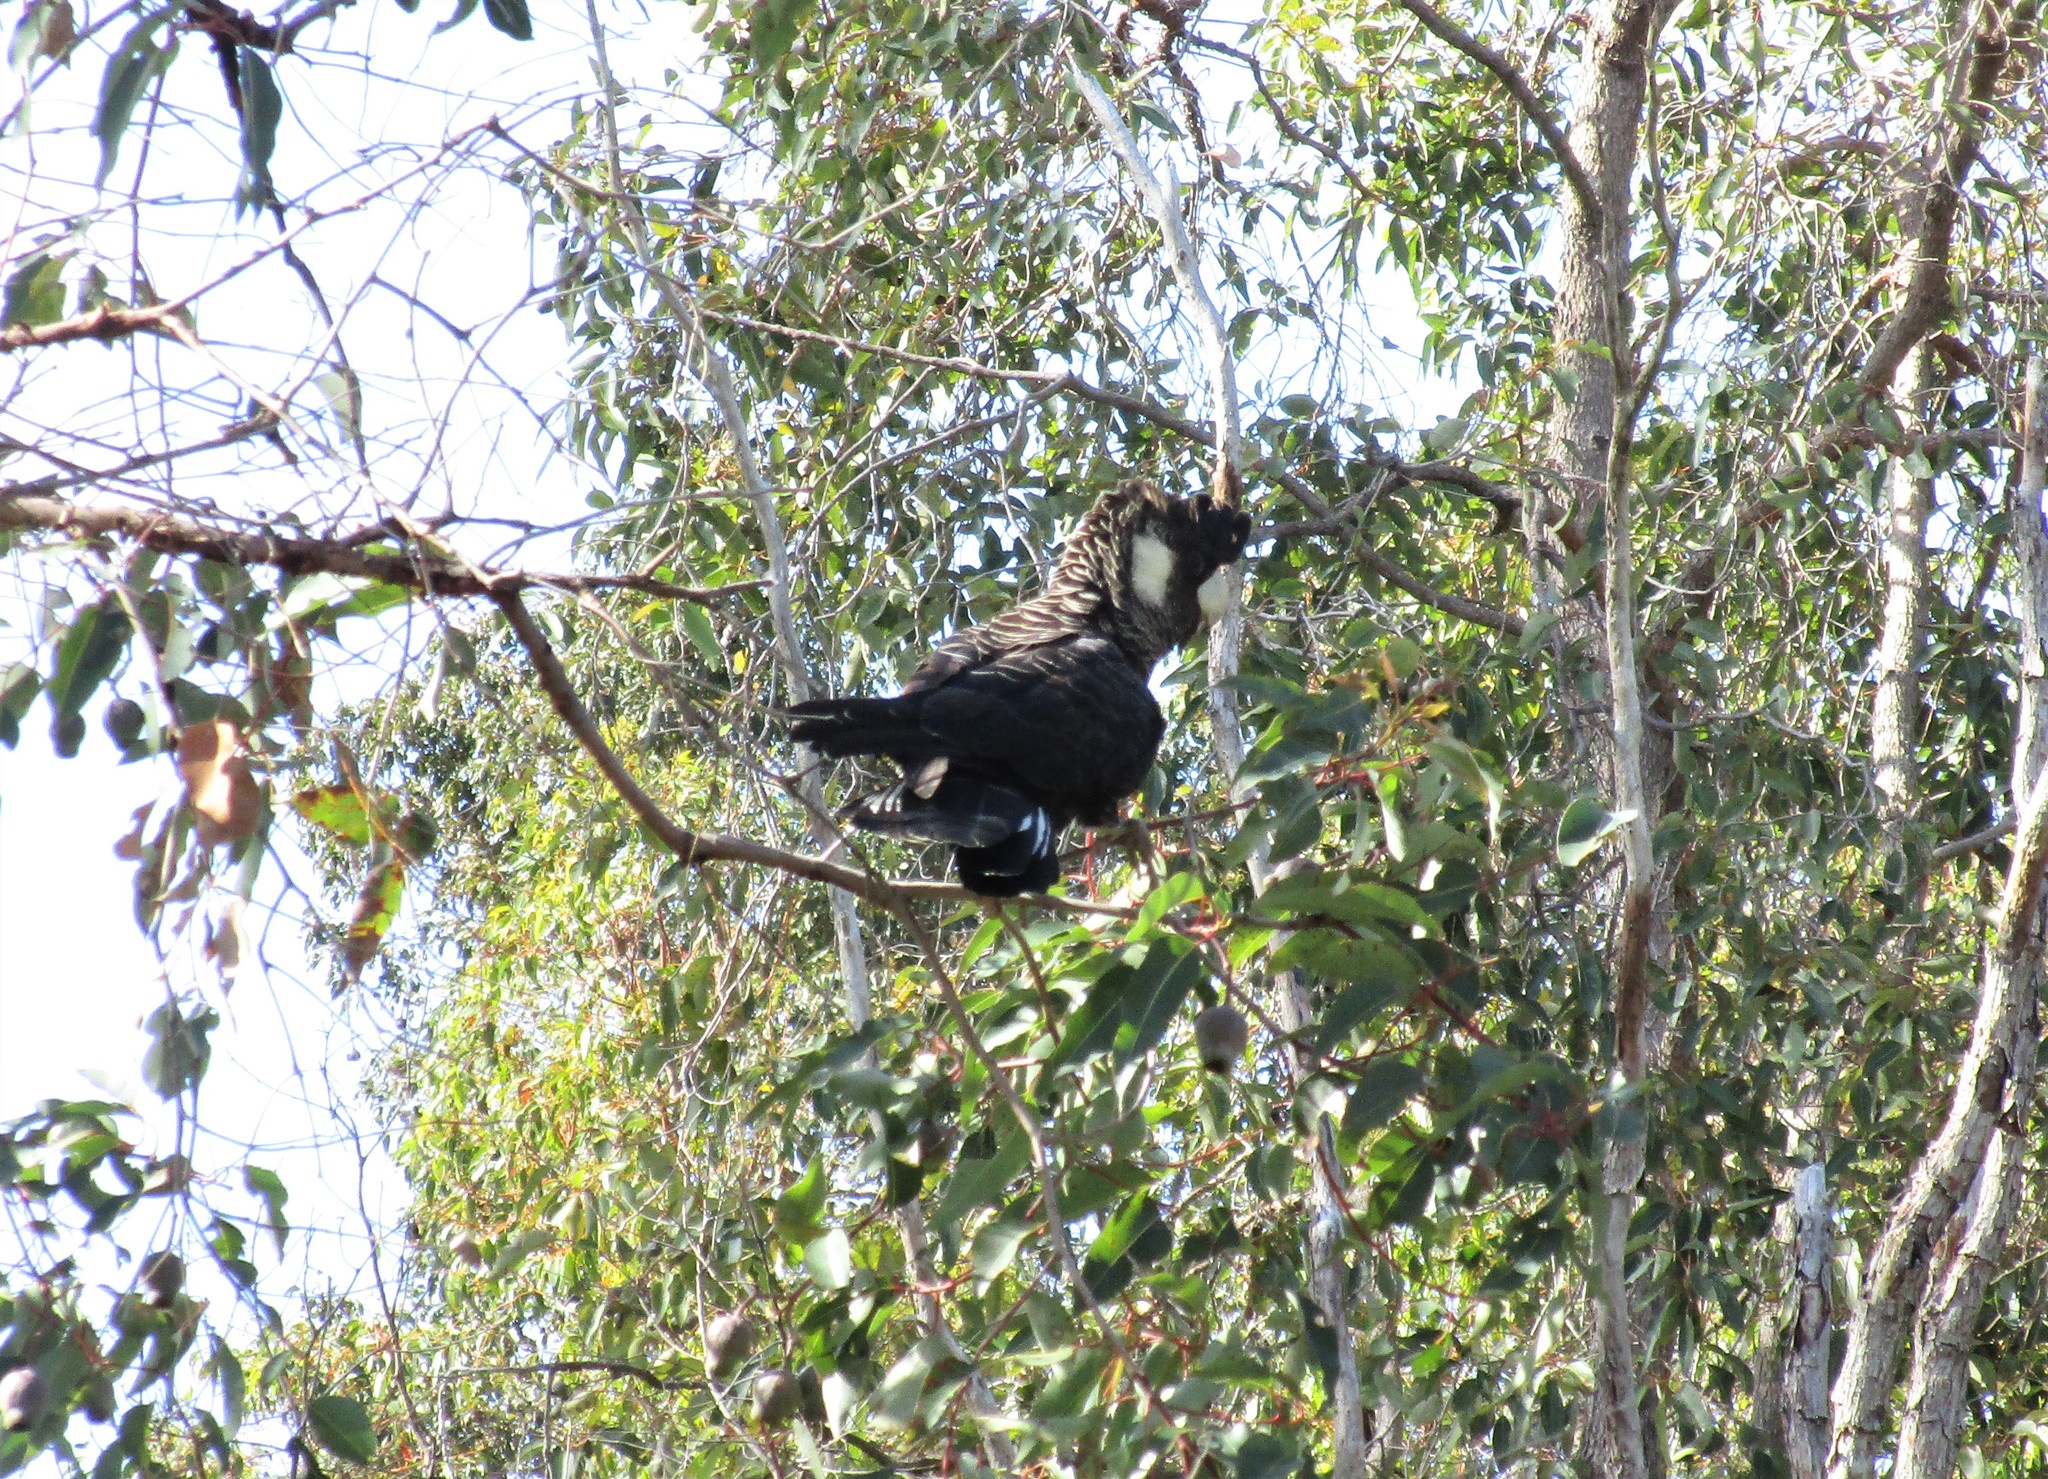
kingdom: Animalia
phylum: Chordata
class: Aves
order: Psittaciformes
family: Cacatuidae
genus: Zanda
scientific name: Zanda latirostris
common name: Short-billed black-cockatoo
